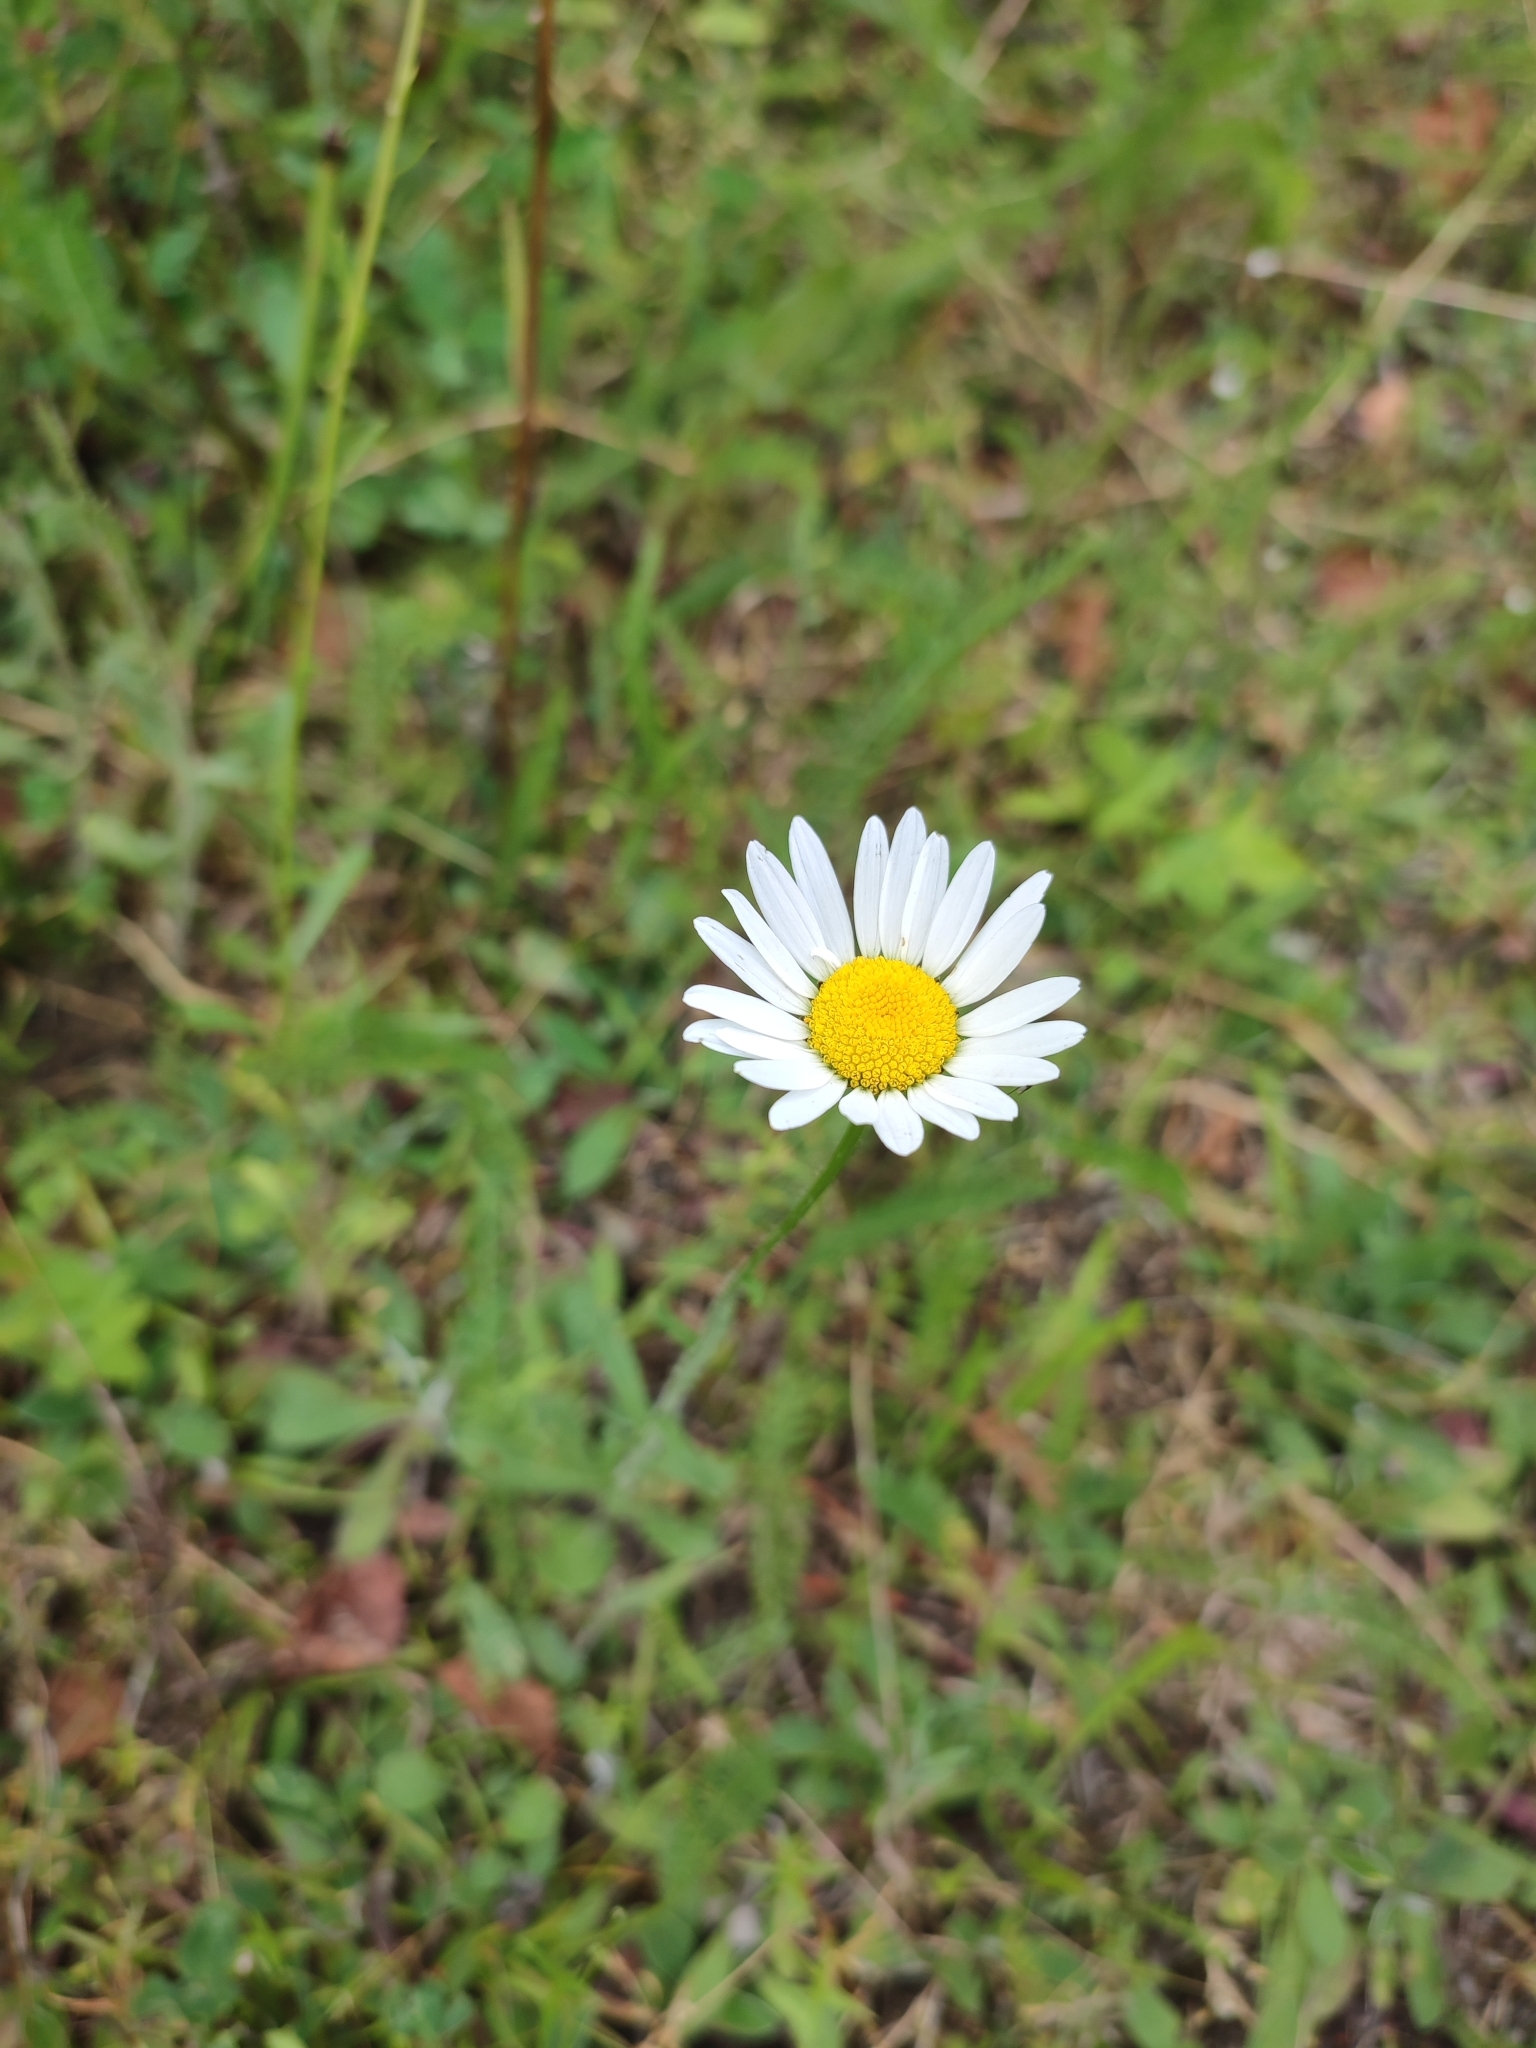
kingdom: Plantae
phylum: Tracheophyta
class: Magnoliopsida
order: Asterales
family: Asteraceae
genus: Leucanthemum
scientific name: Leucanthemum vulgare
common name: Oxeye daisy
